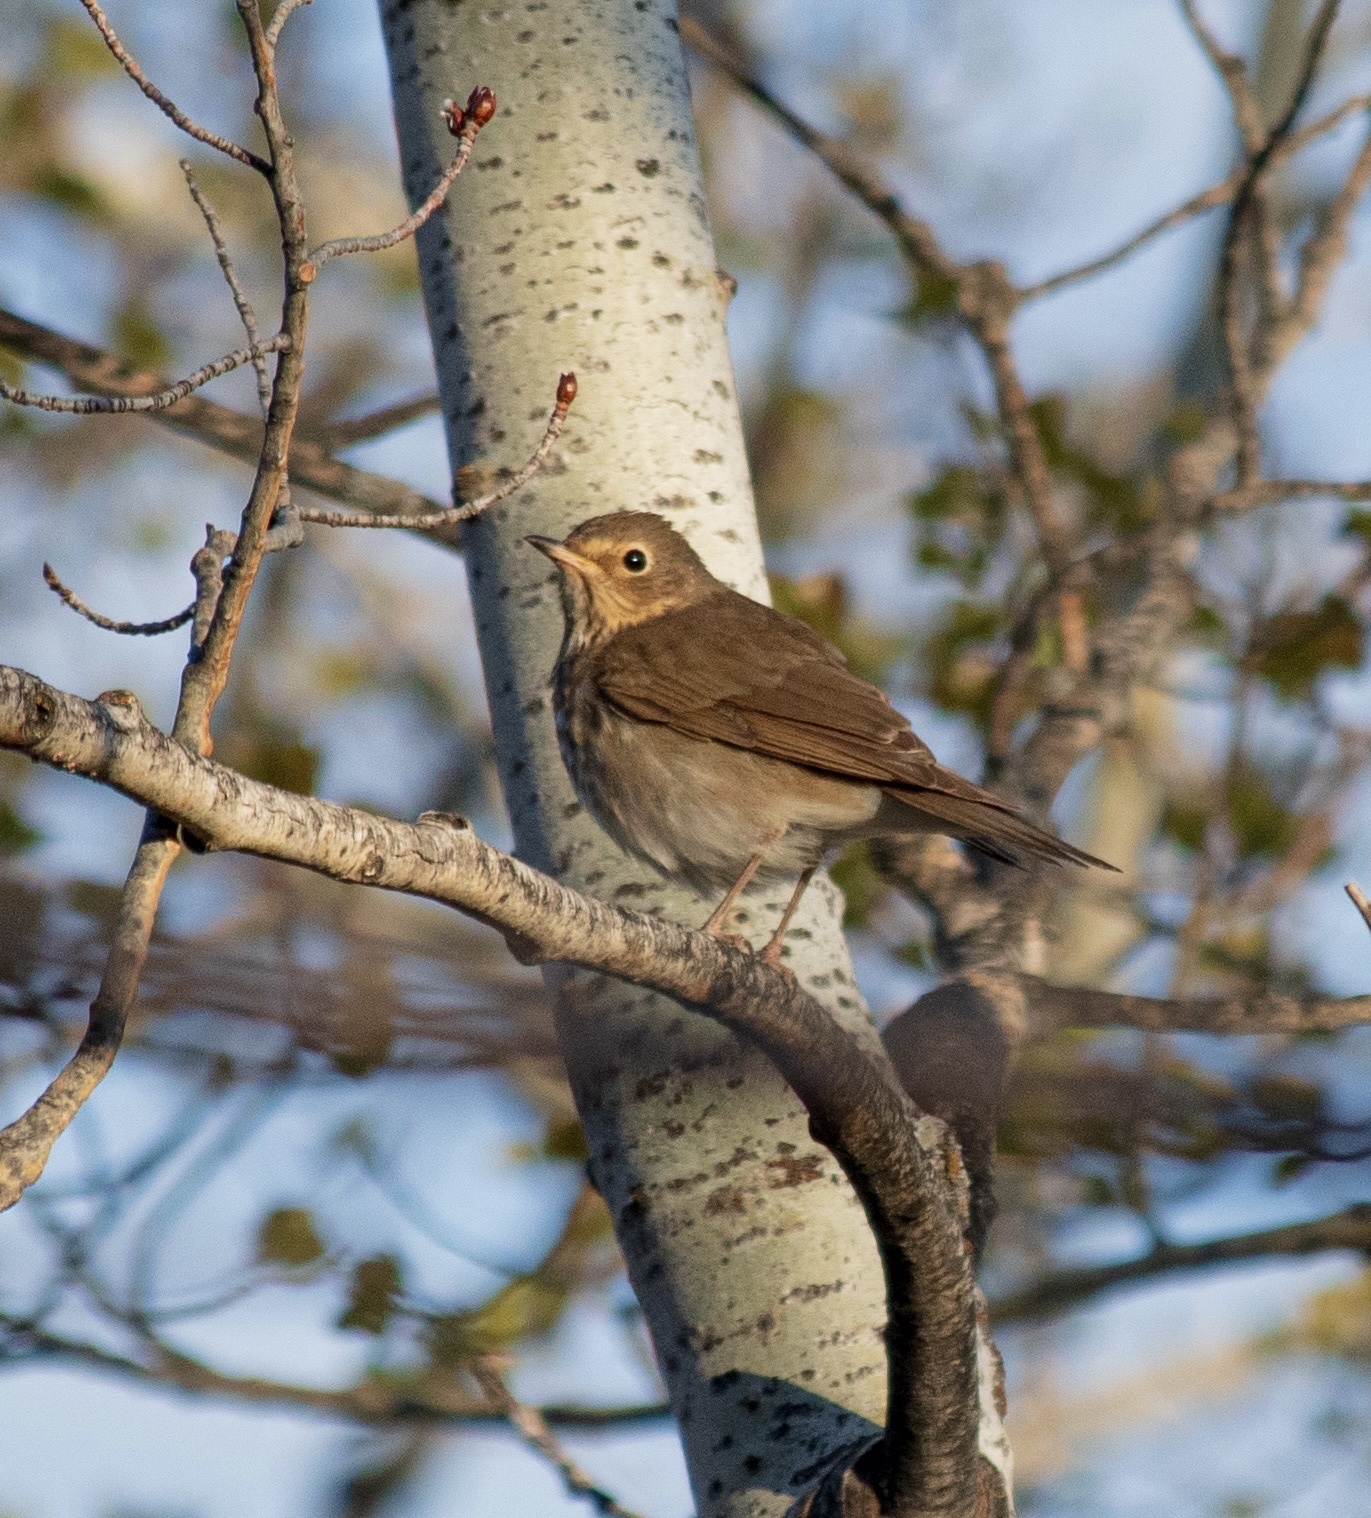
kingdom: Animalia
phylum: Chordata
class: Aves
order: Passeriformes
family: Turdidae
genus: Catharus
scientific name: Catharus ustulatus
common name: Swainson's thrush
